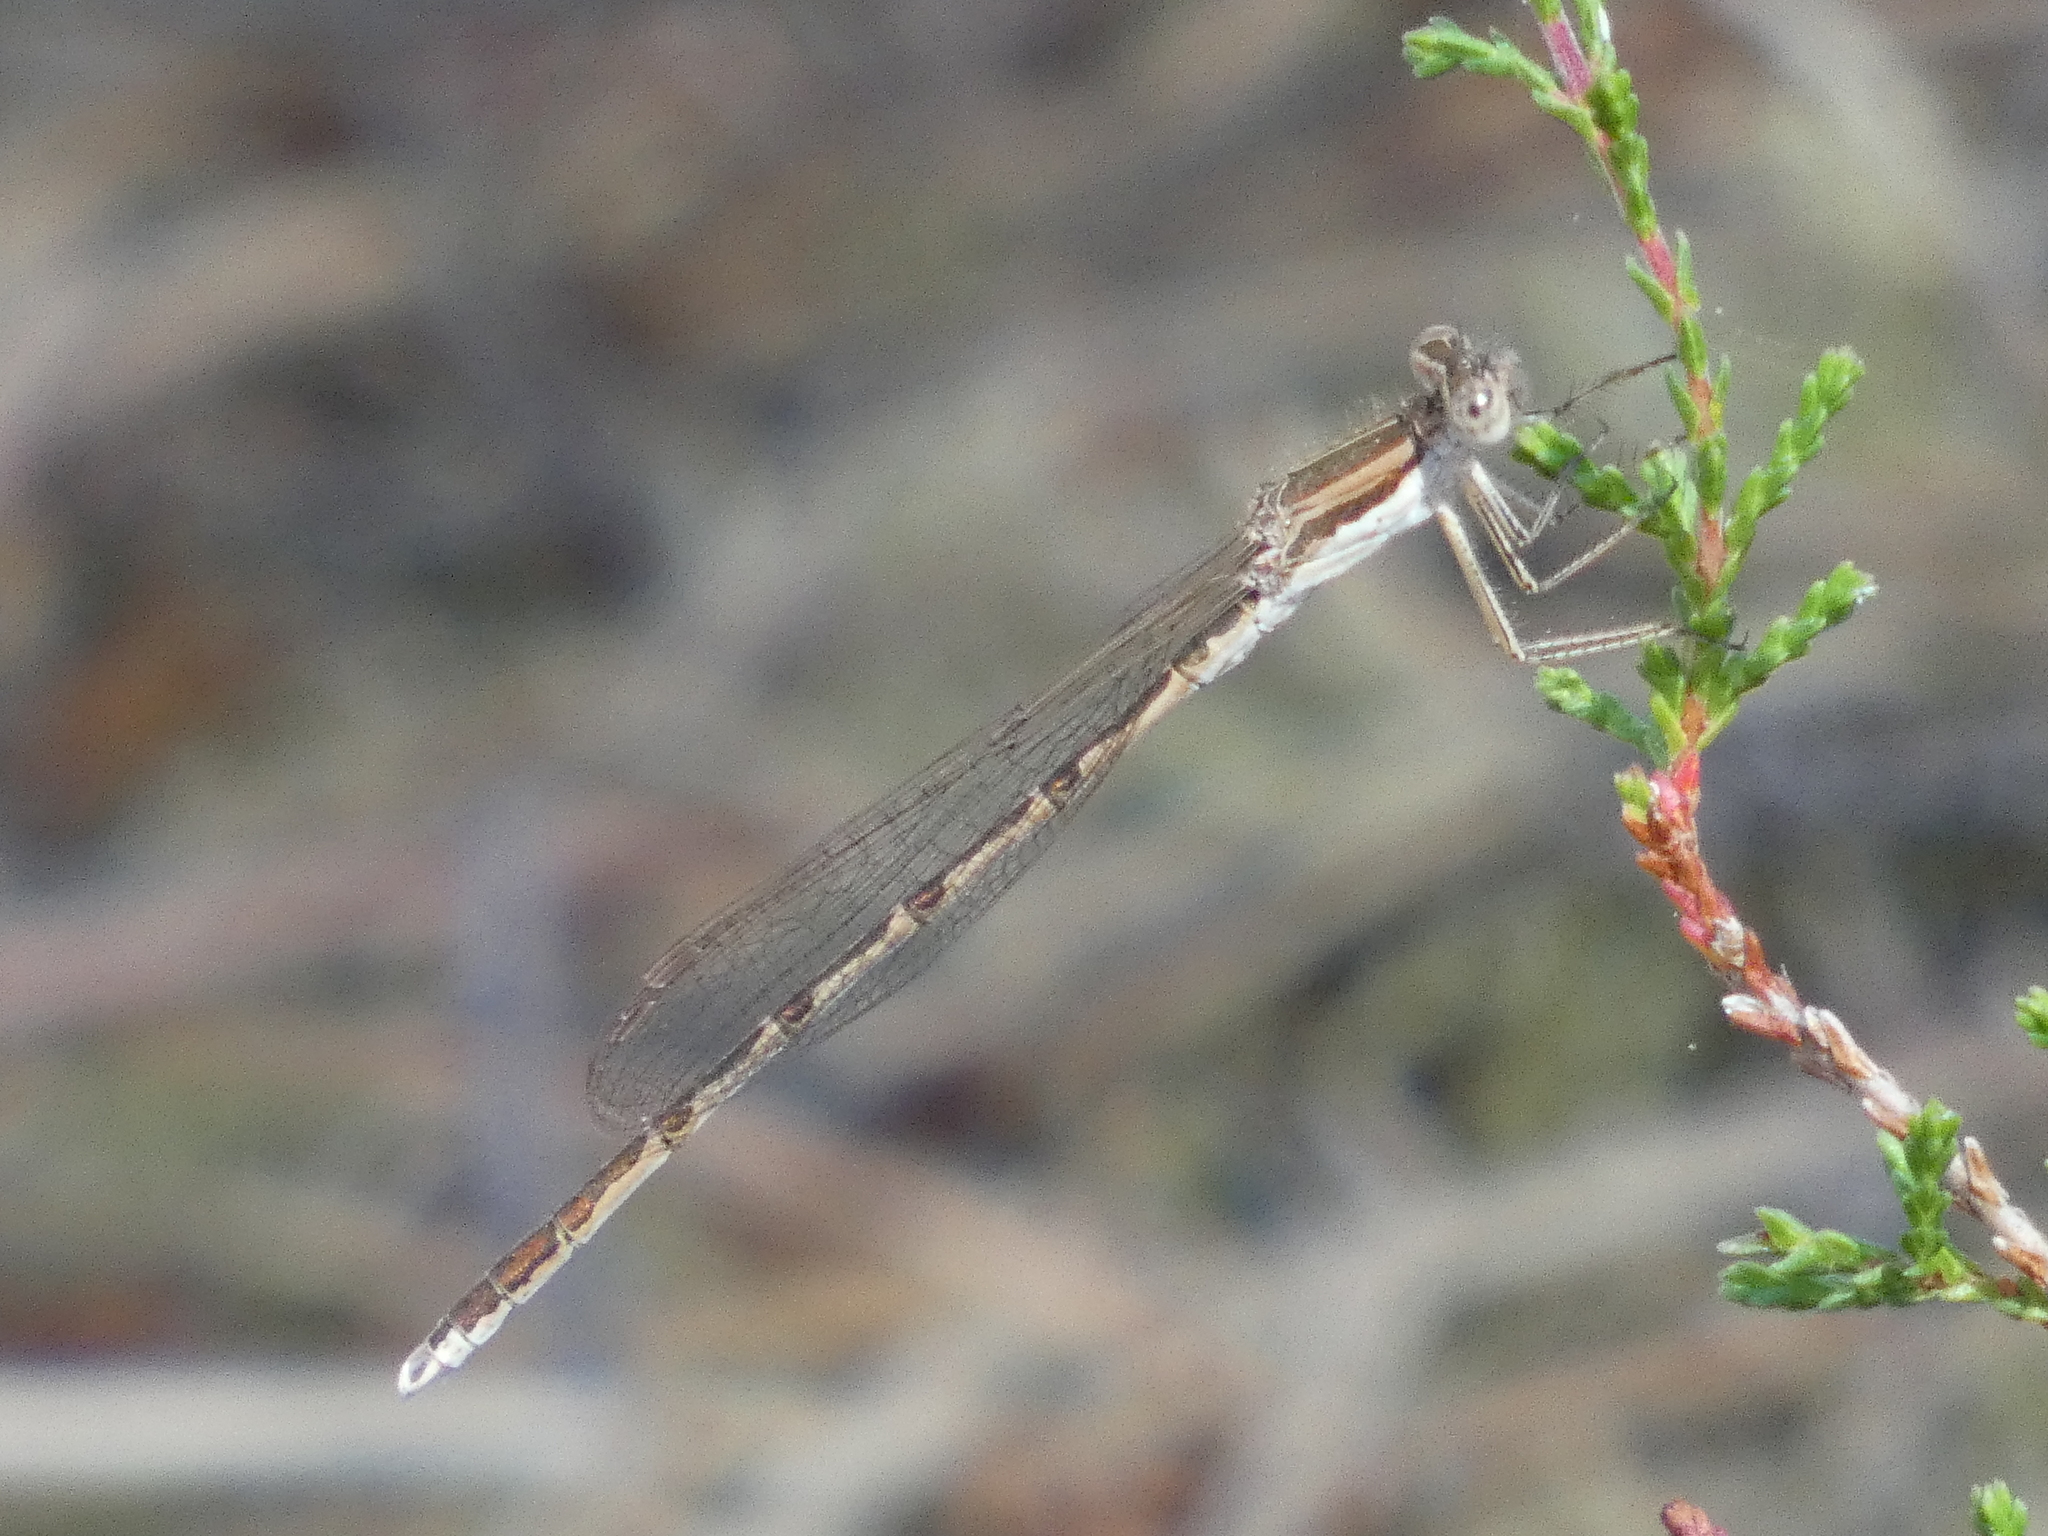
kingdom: Animalia
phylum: Arthropoda
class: Insecta
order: Odonata
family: Lestidae
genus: Sympecma
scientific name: Sympecma fusca
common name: Common winter damsel
